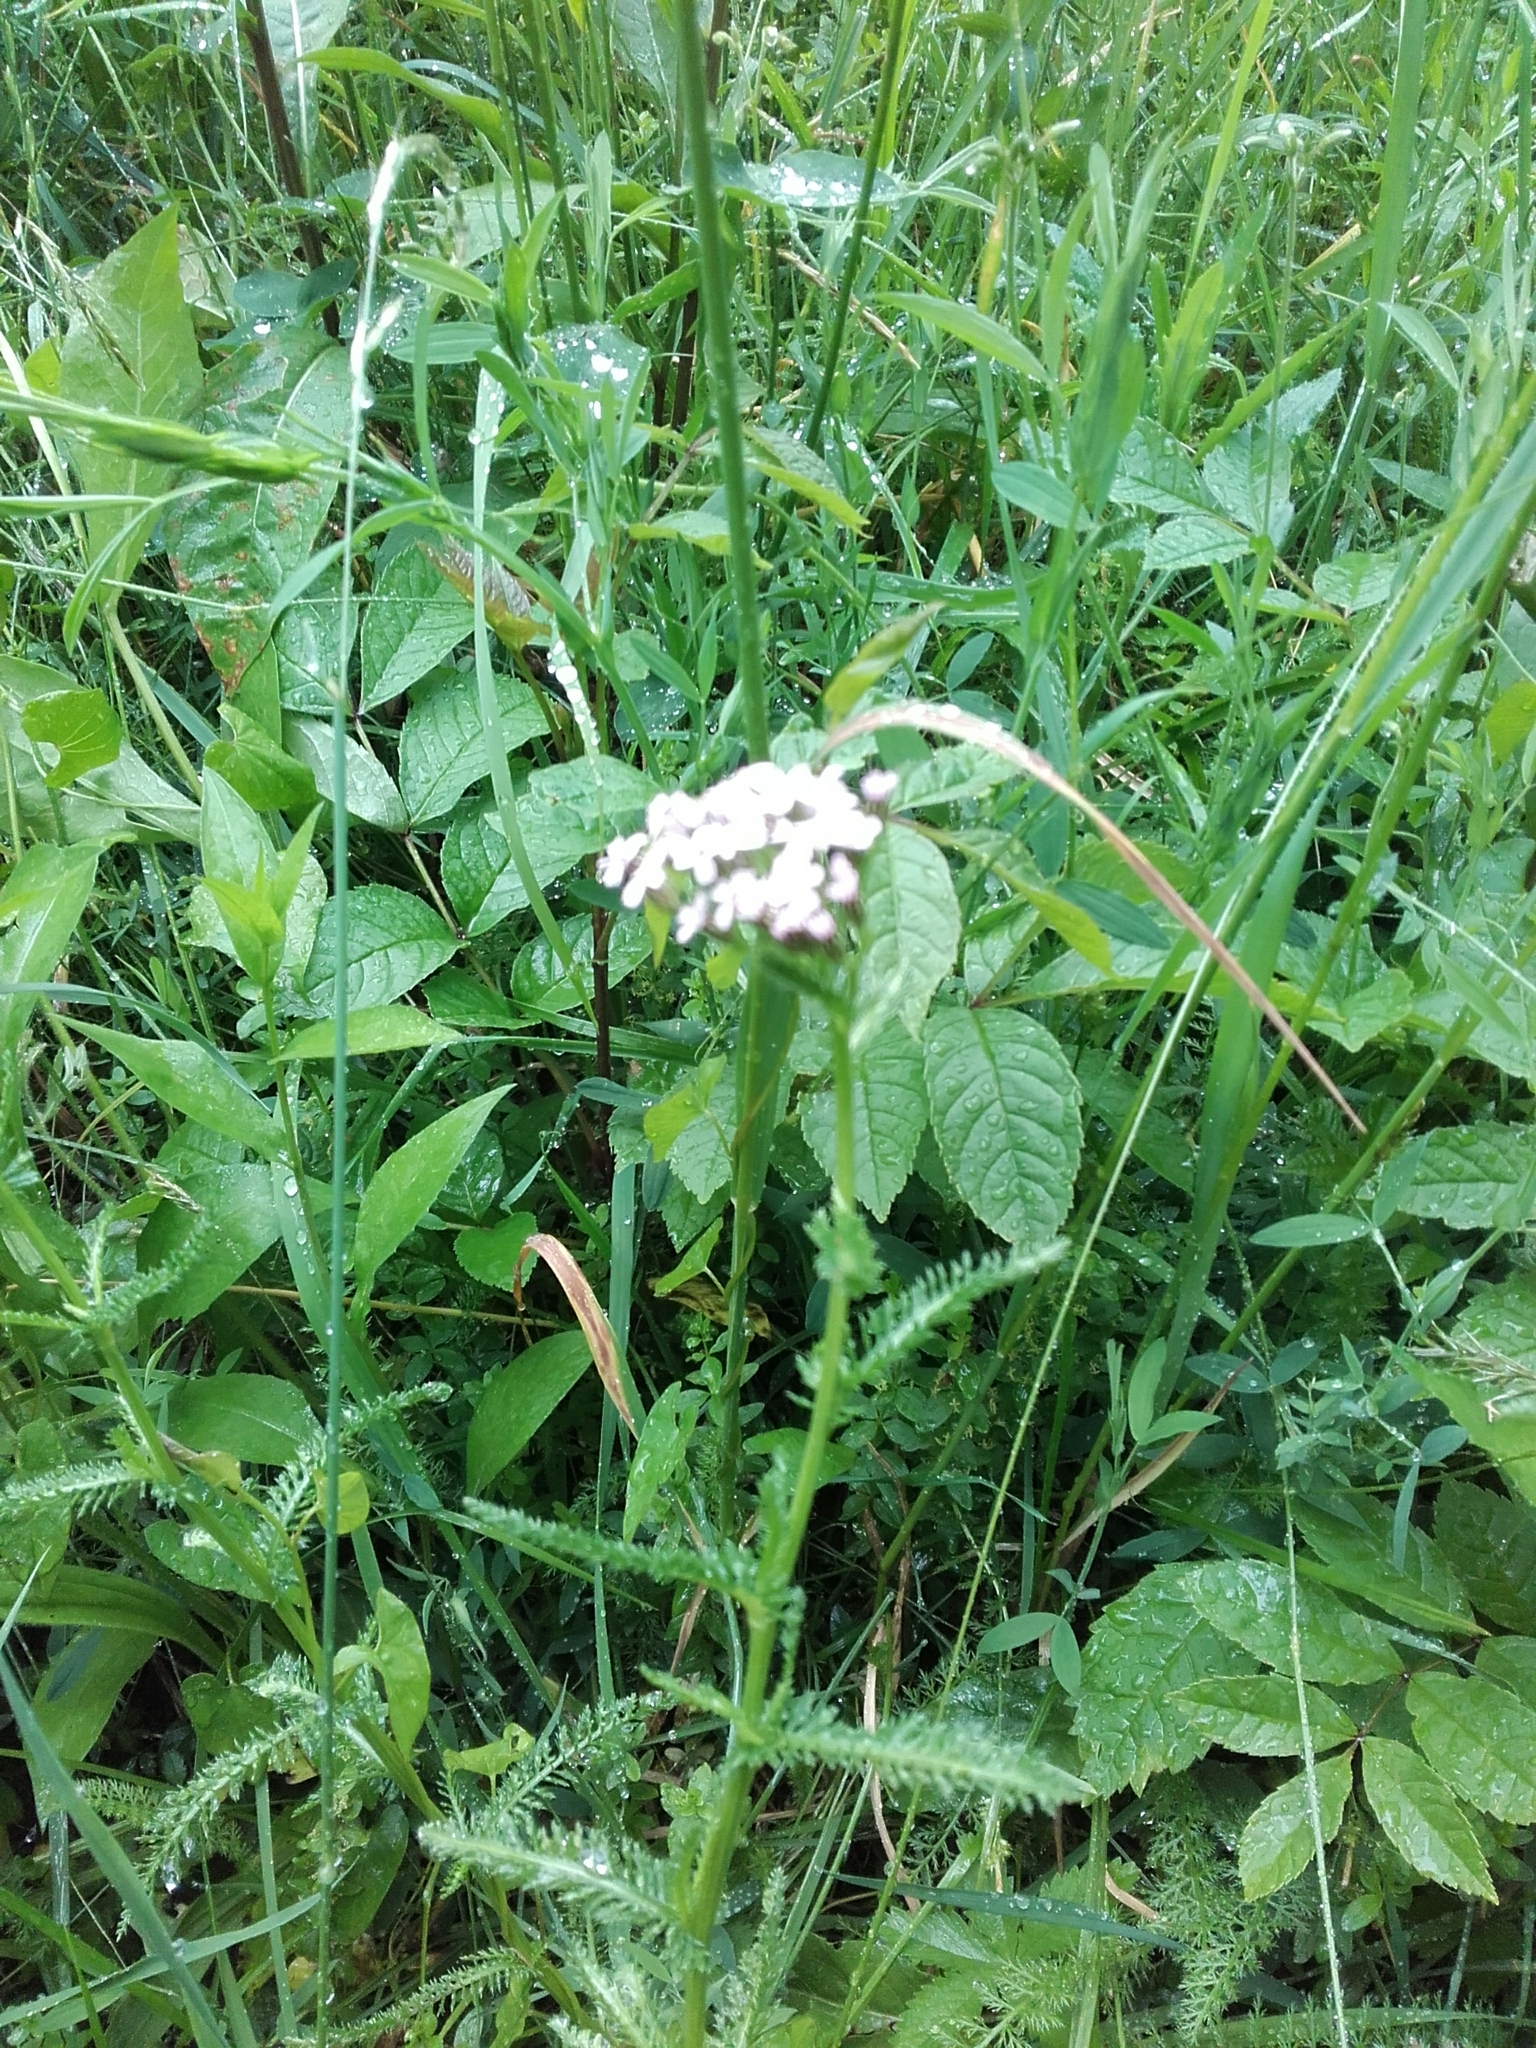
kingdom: Plantae
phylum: Tracheophyta
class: Magnoliopsida
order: Asterales
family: Asteraceae
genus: Achillea
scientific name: Achillea millefolium
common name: Yarrow
